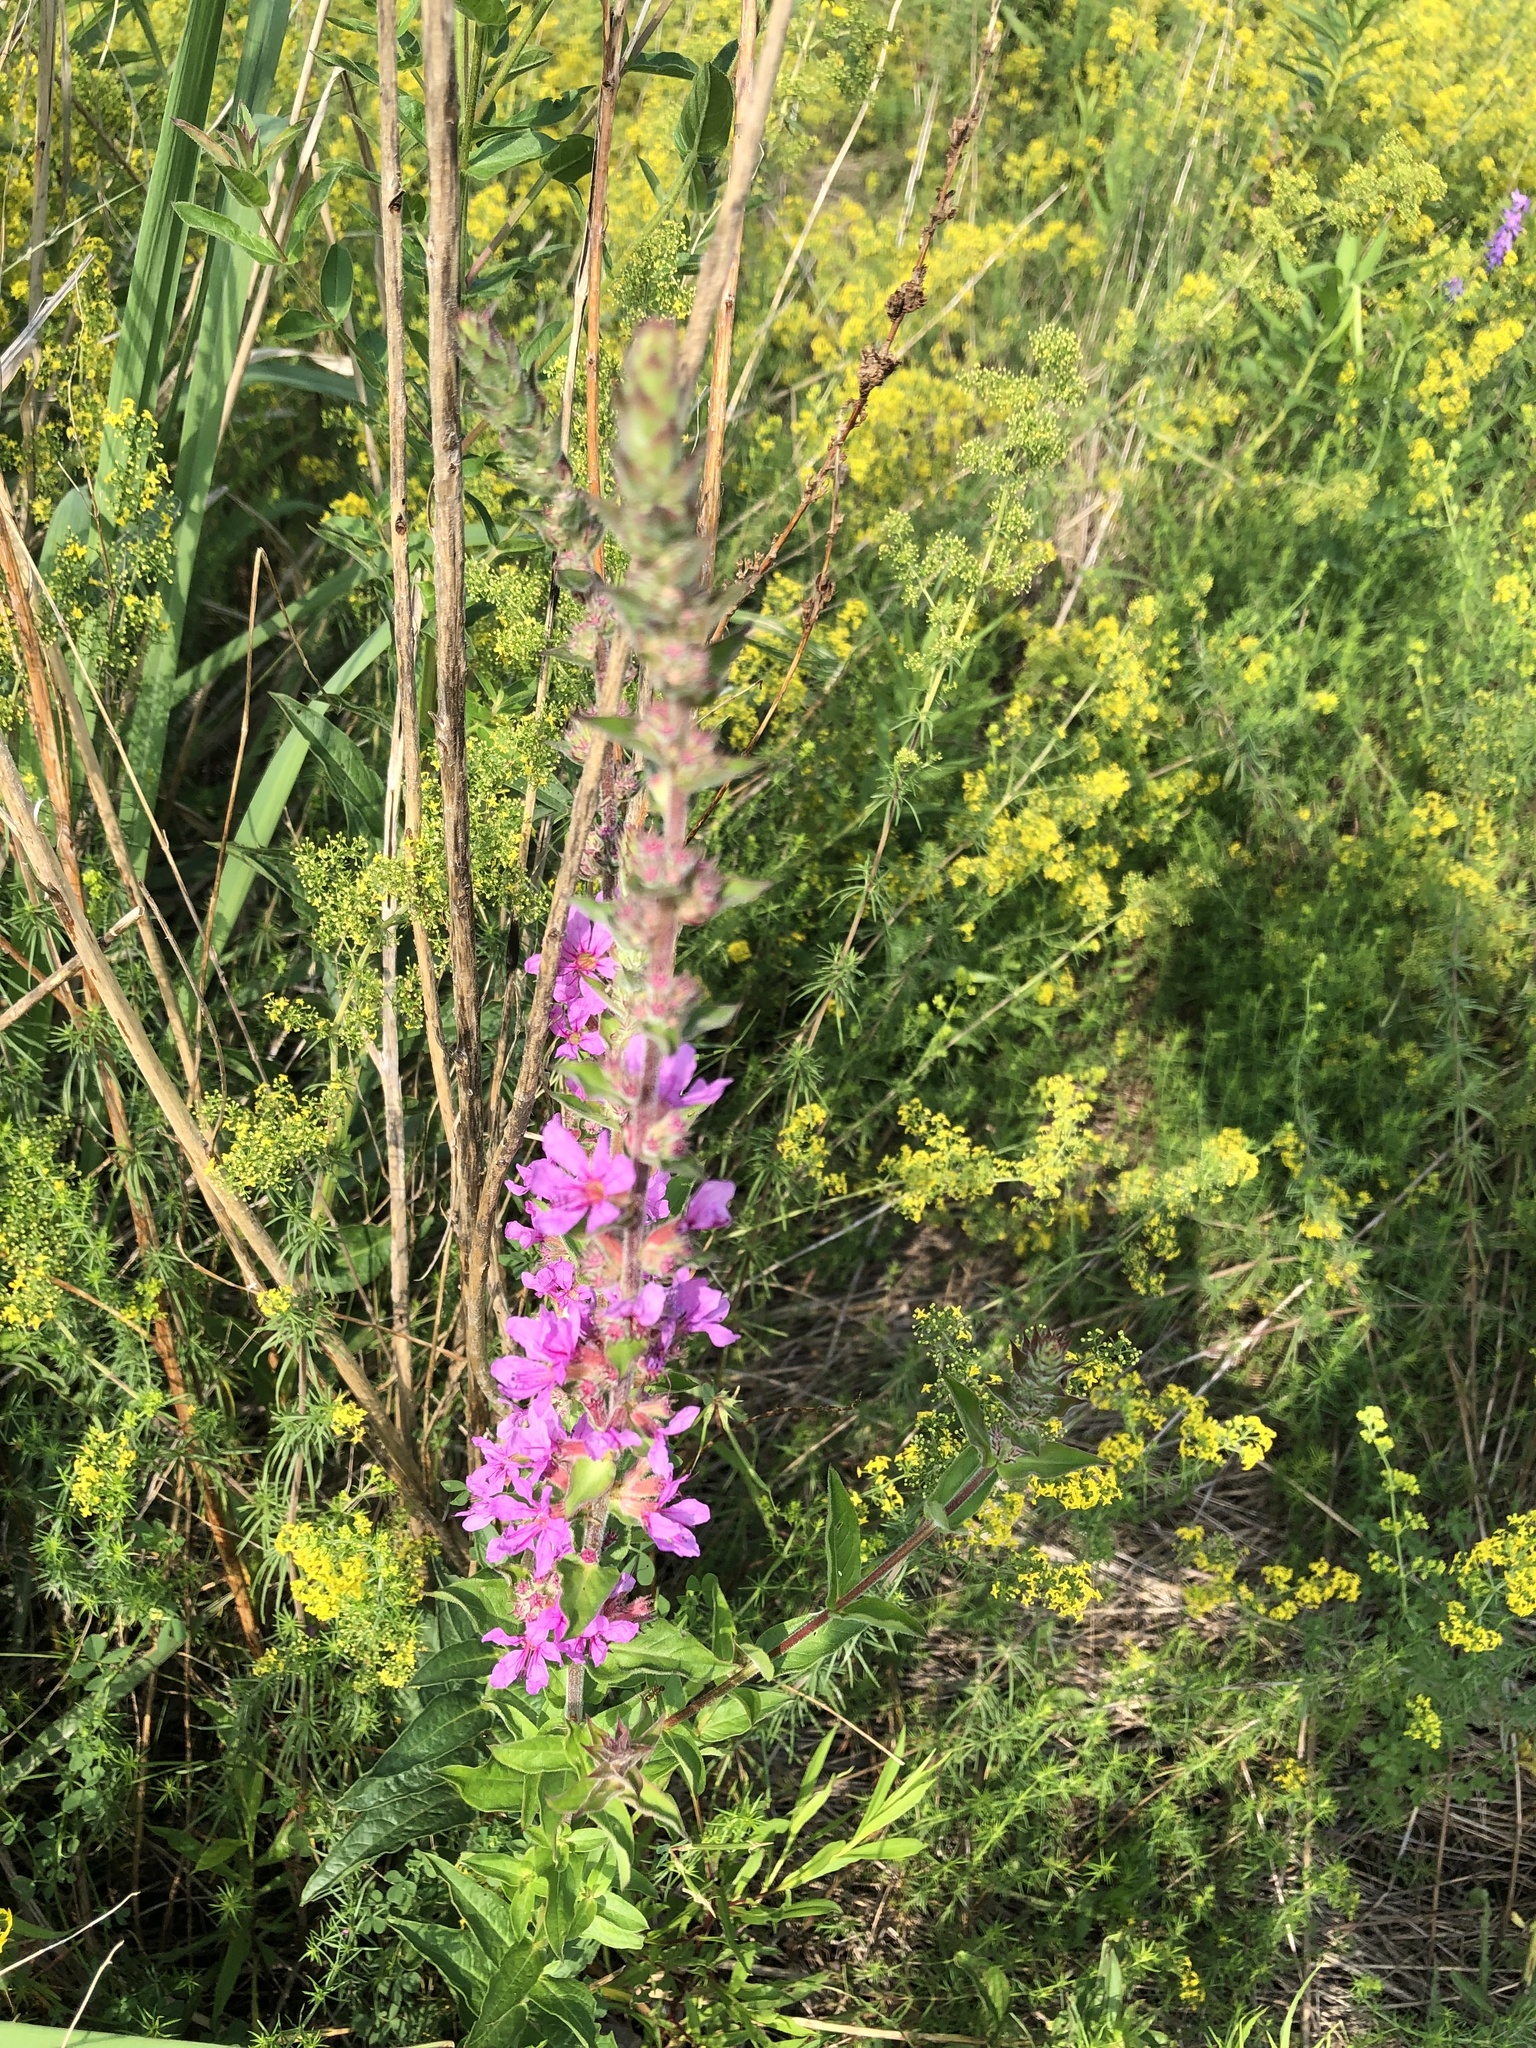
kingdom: Plantae
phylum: Tracheophyta
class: Magnoliopsida
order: Myrtales
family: Lythraceae
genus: Lythrum
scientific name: Lythrum salicaria
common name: Purple loosestrife
